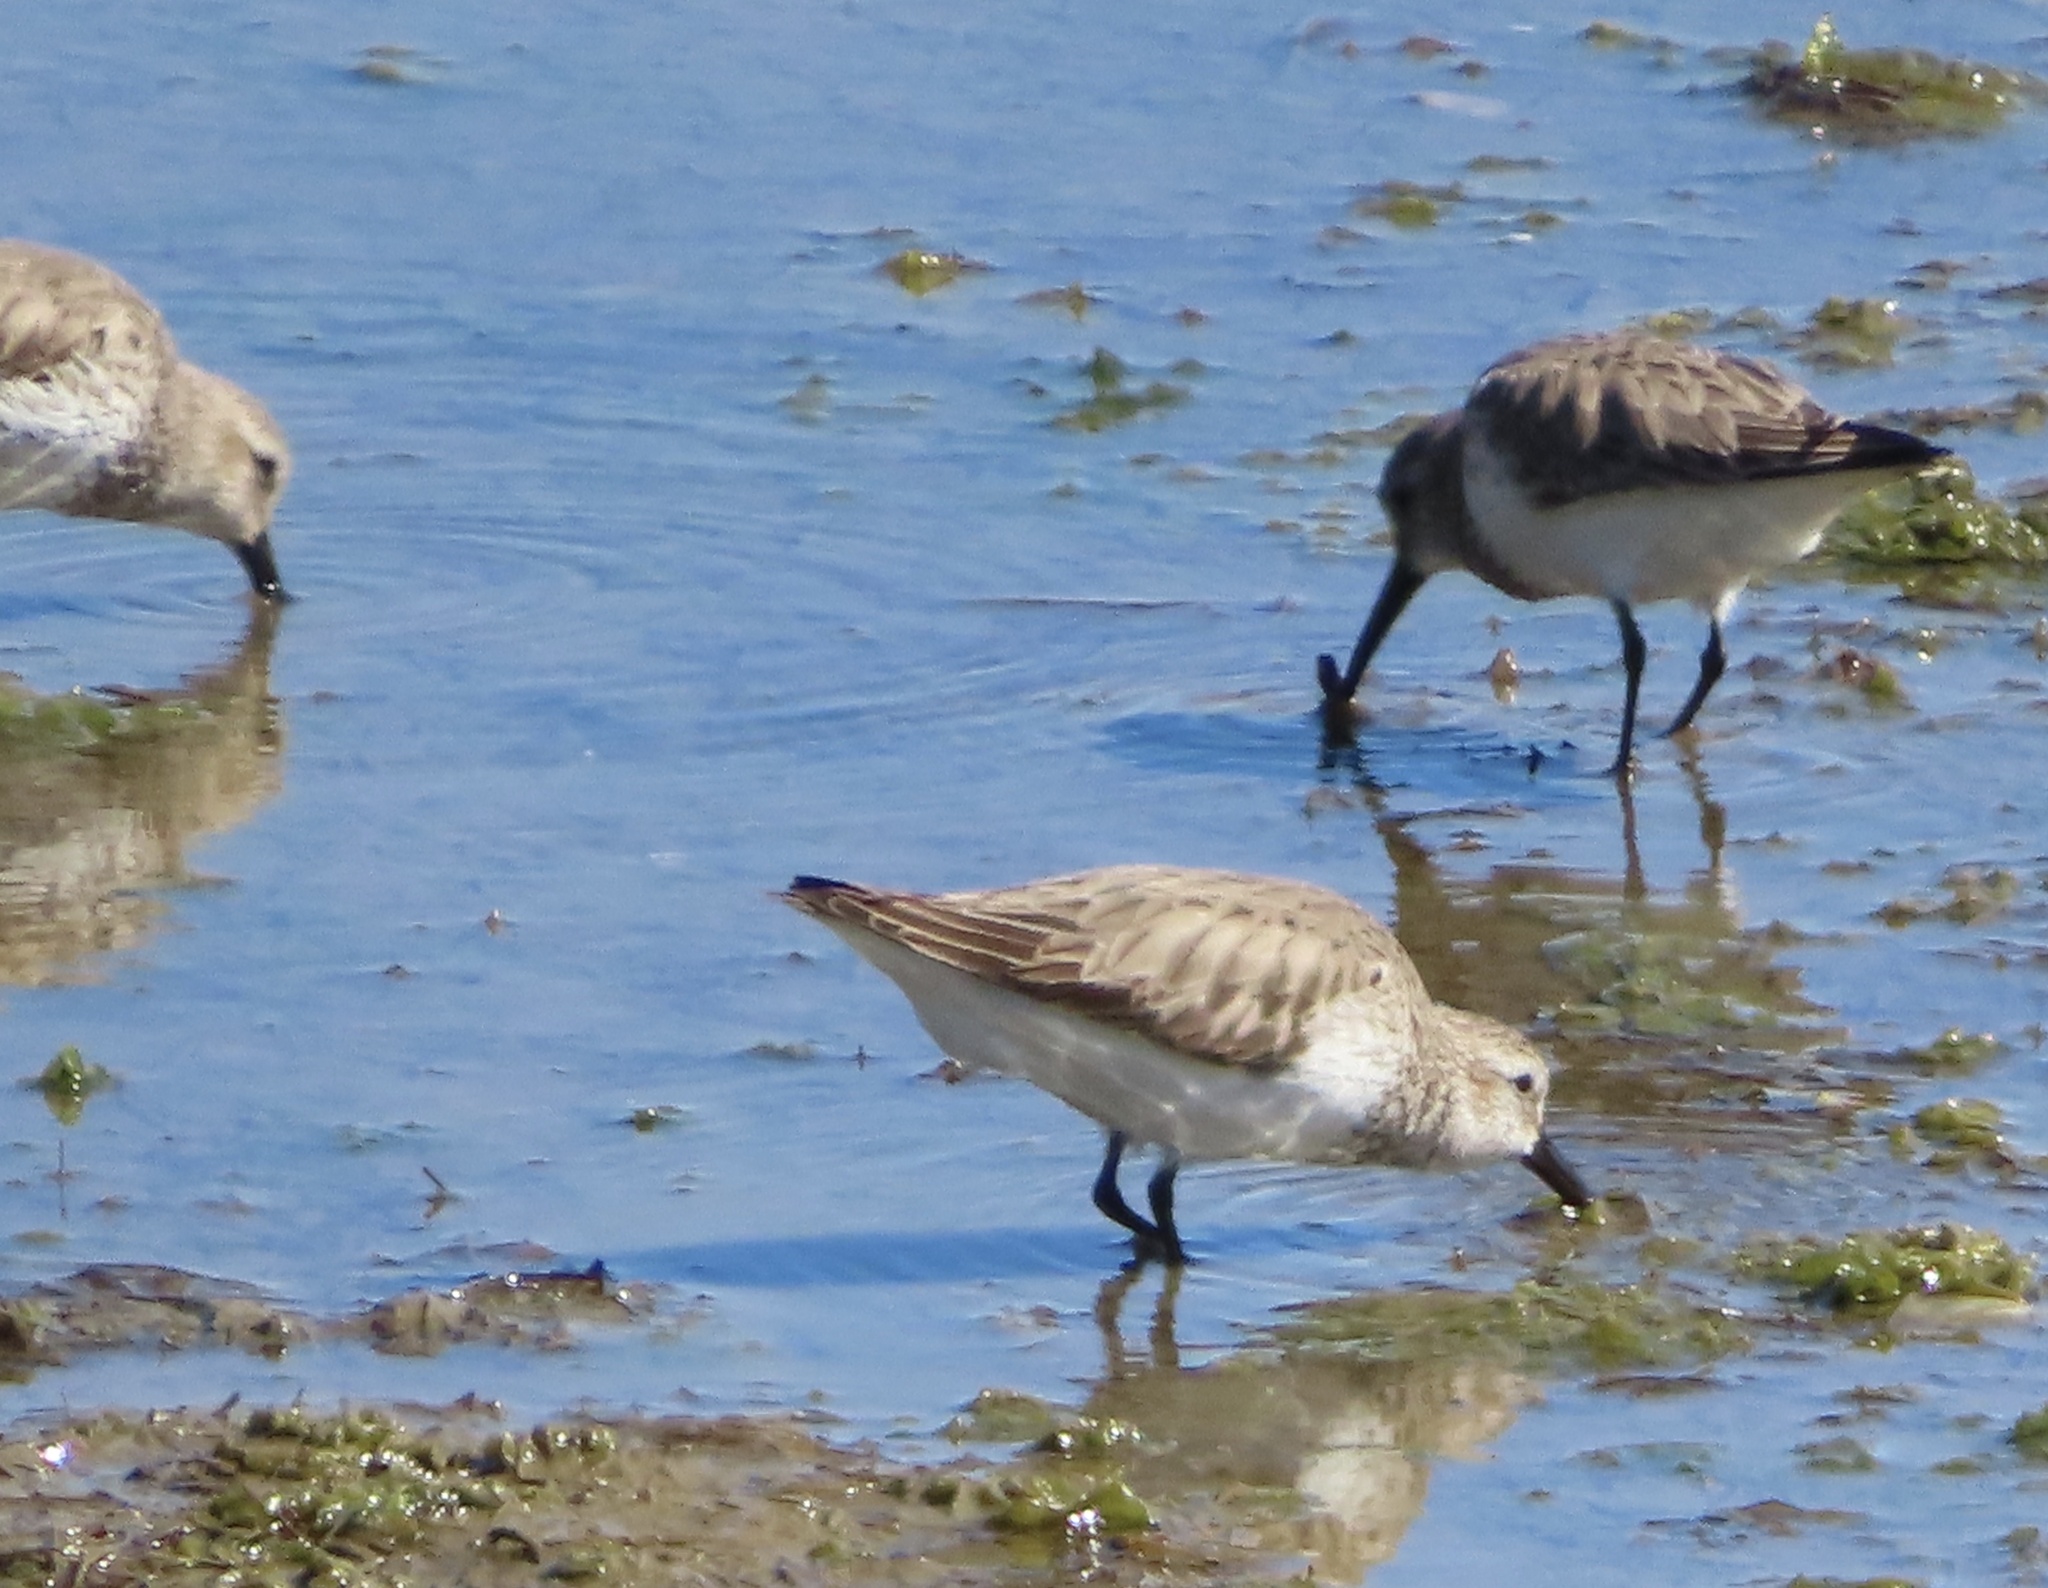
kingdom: Animalia
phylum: Chordata
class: Aves
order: Charadriiformes
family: Scolopacidae
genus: Calidris
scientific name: Calidris alba
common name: Sanderling
